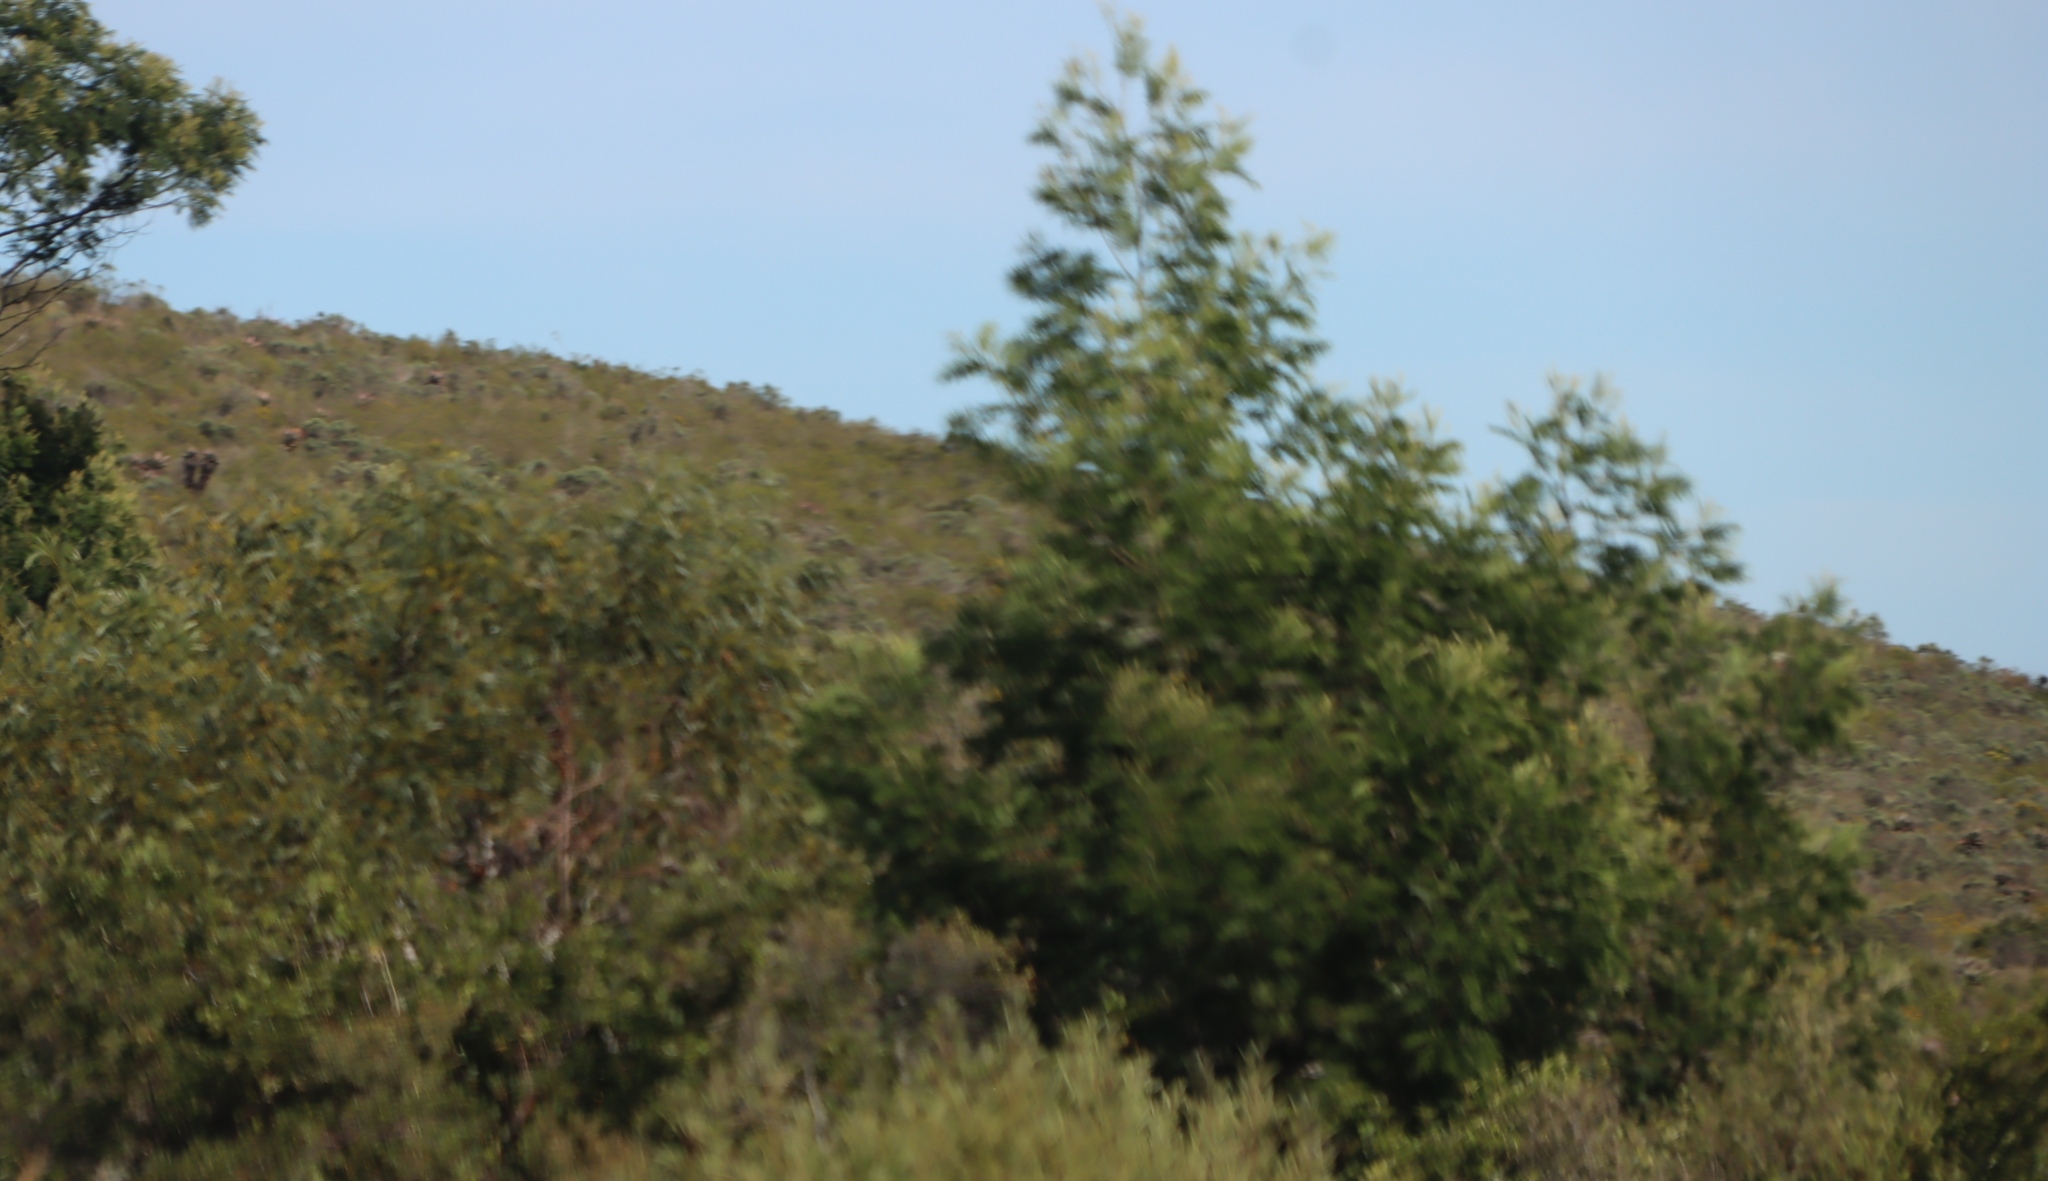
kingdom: Plantae
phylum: Tracheophyta
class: Magnoliopsida
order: Fabales
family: Fabaceae
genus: Acacia
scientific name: Acacia mearnsii
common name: Black wattle
